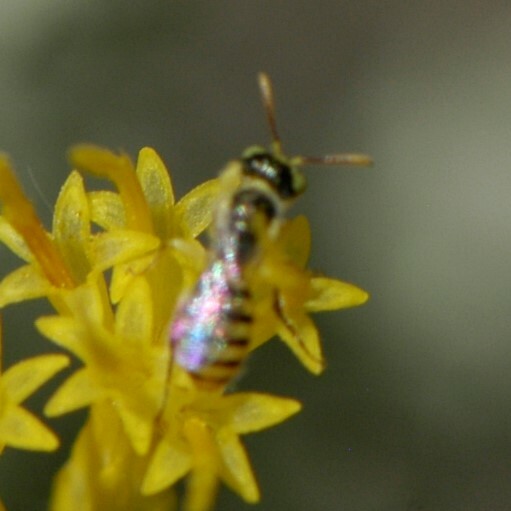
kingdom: Animalia
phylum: Arthropoda
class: Insecta
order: Hymenoptera
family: Andrenidae
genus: Perdita
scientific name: Perdita
